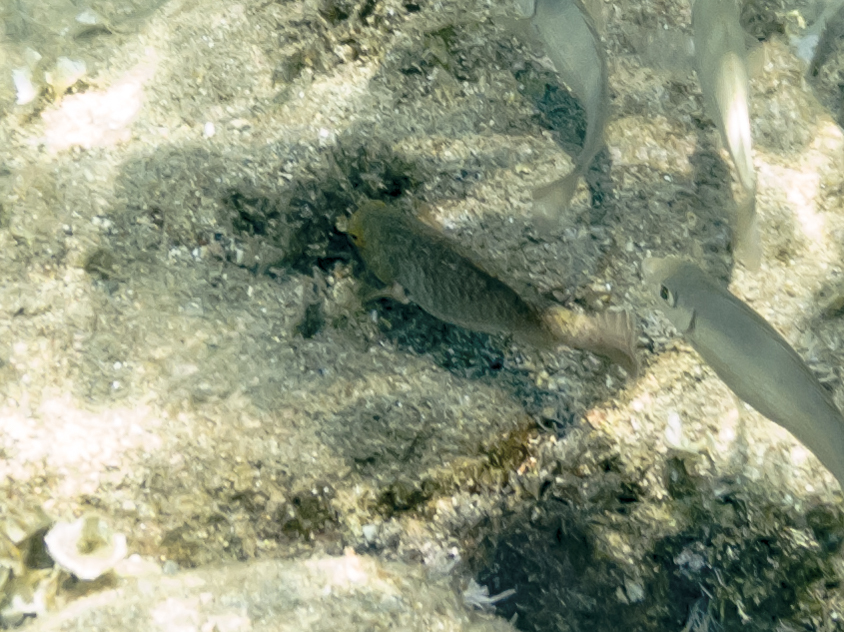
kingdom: Animalia
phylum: Chordata
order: Perciformes
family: Scaridae
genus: Sparisoma
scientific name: Sparisoma cretense
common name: Parrotfish
